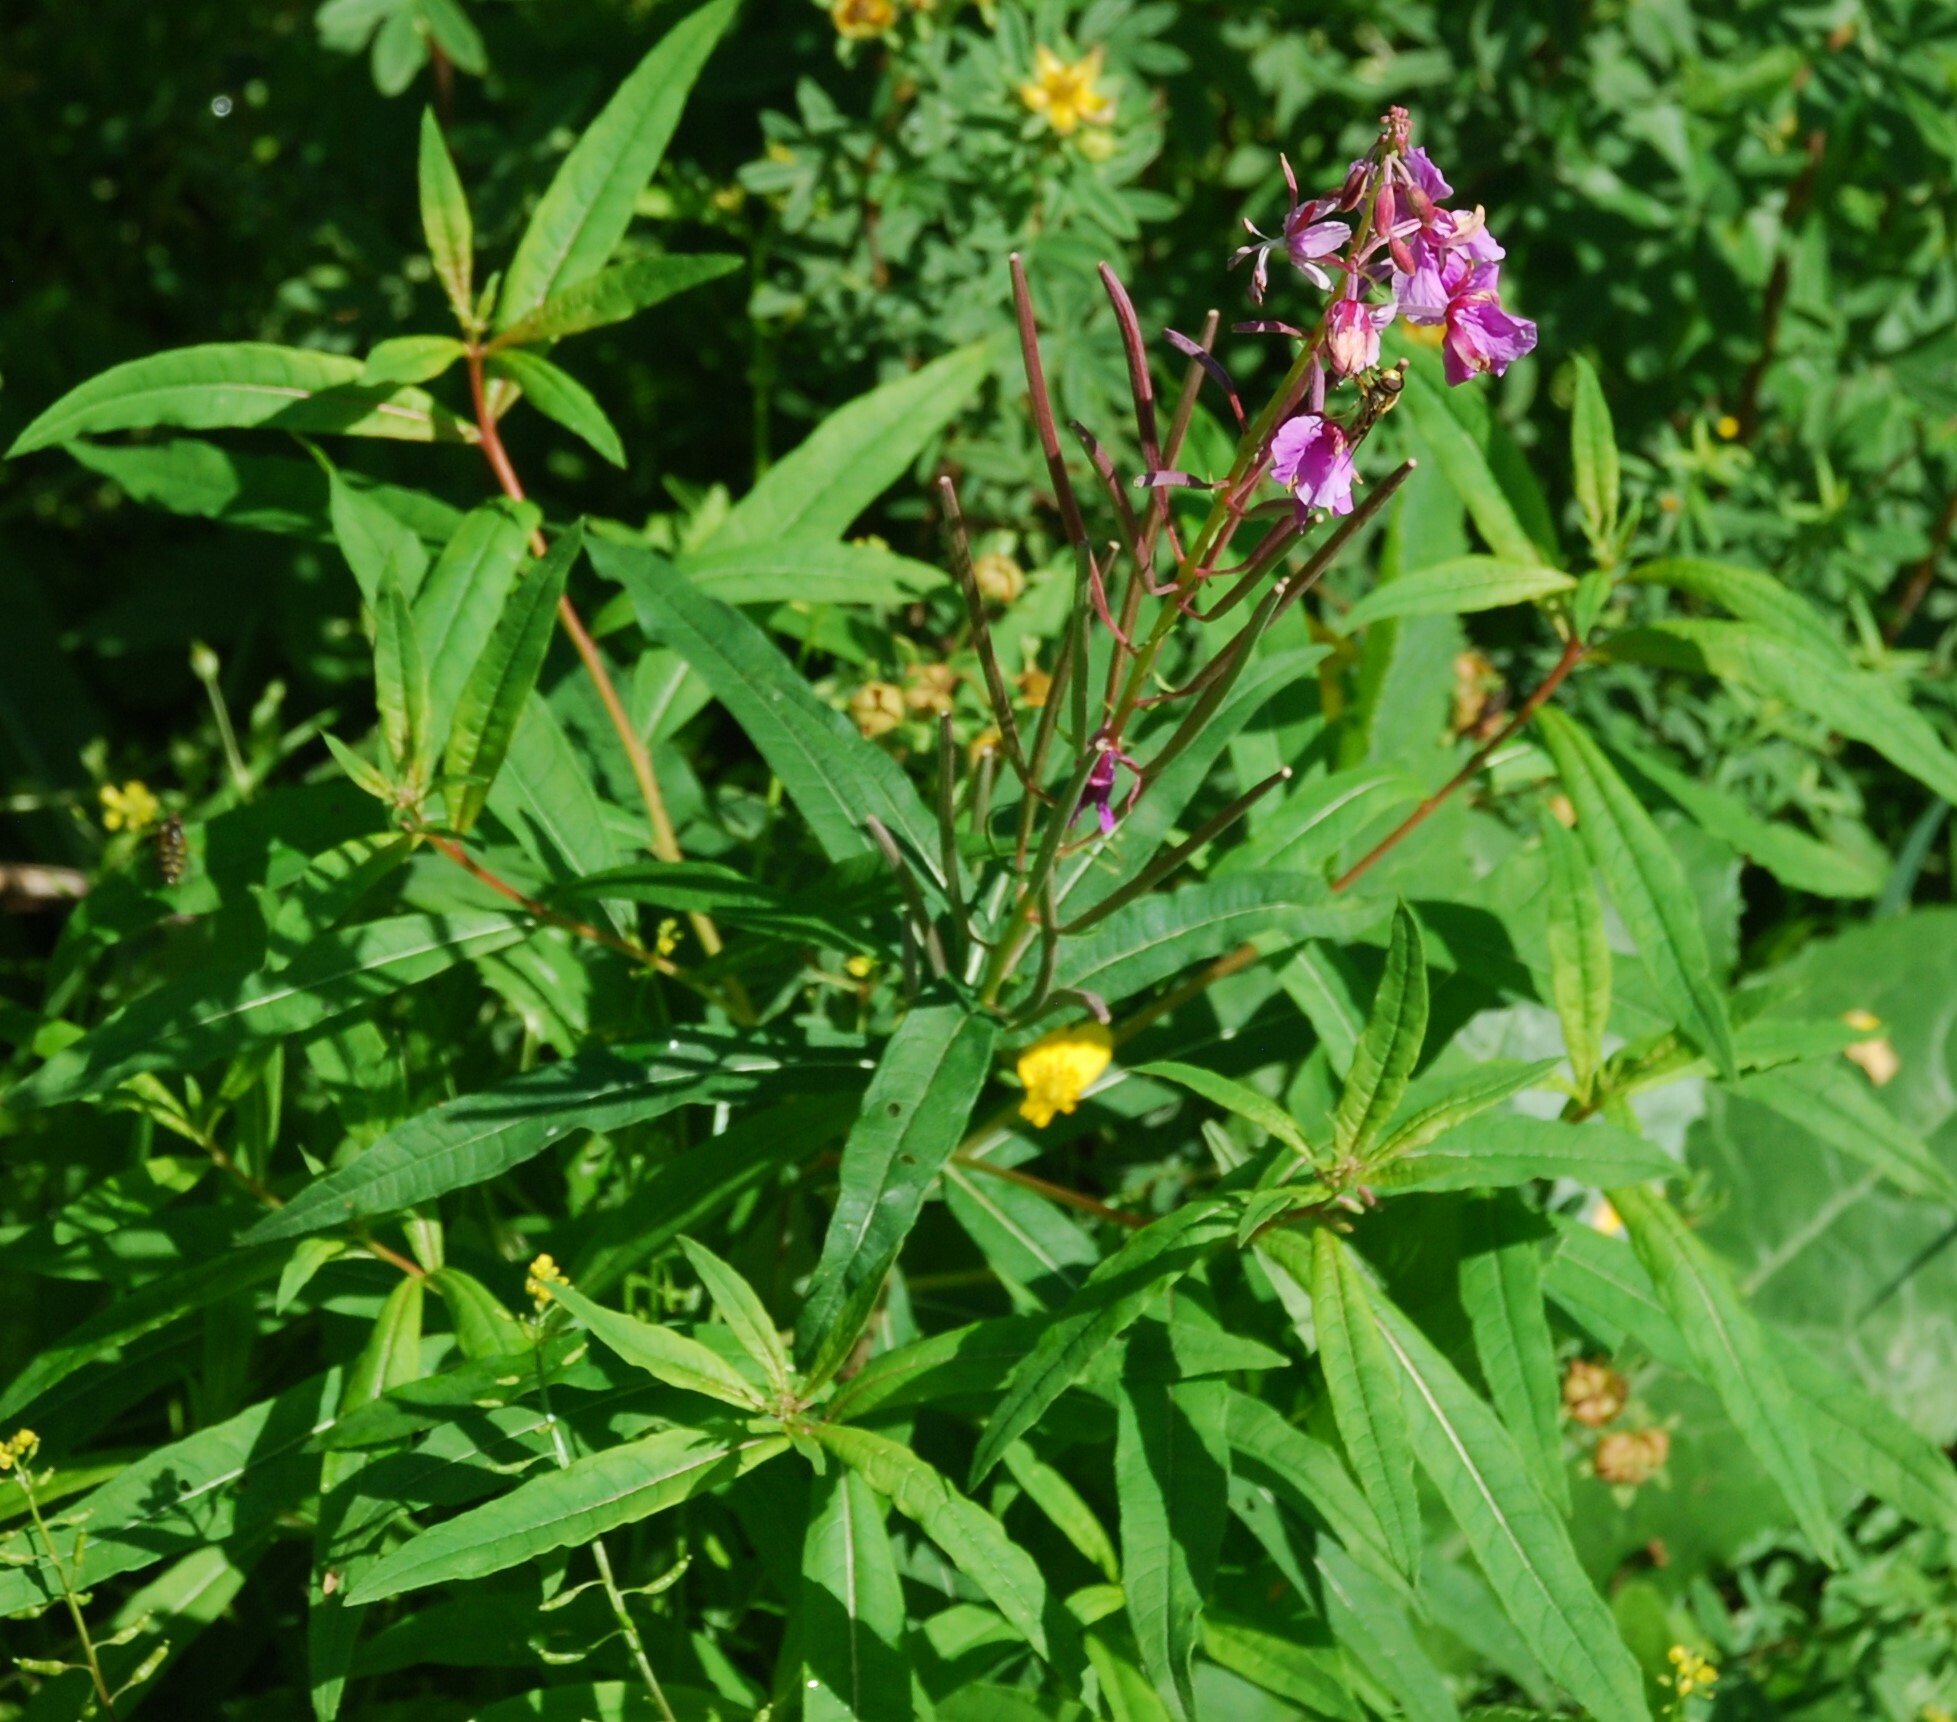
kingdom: Plantae
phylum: Tracheophyta
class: Magnoliopsida
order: Myrtales
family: Onagraceae
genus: Chamaenerion
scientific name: Chamaenerion angustifolium
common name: Fireweed
